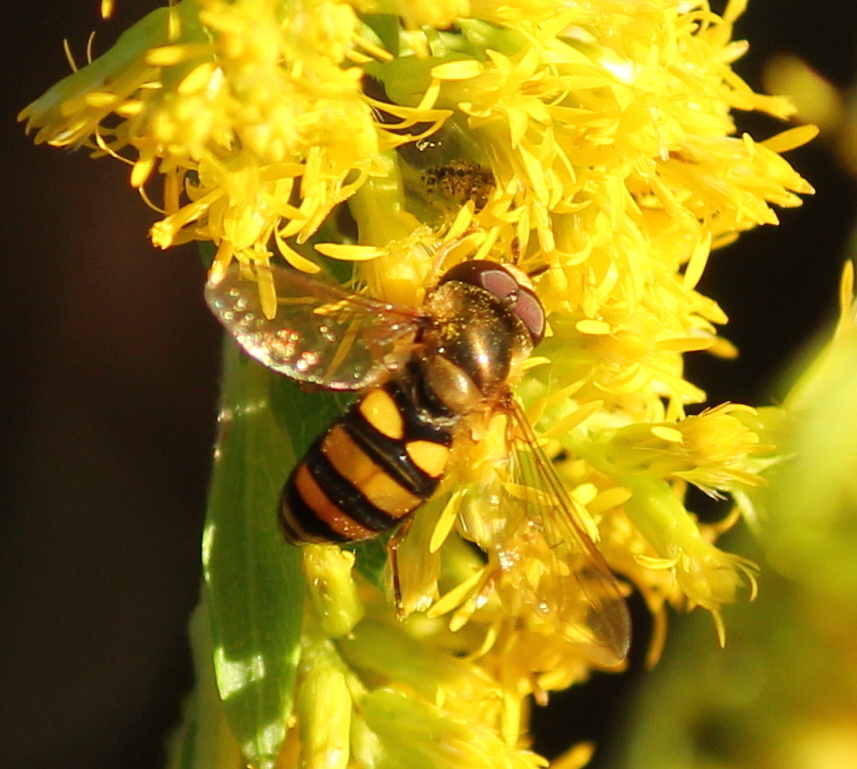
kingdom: Animalia
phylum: Arthropoda
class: Insecta
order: Diptera
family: Syrphidae
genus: Eupeodes
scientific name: Eupeodes
